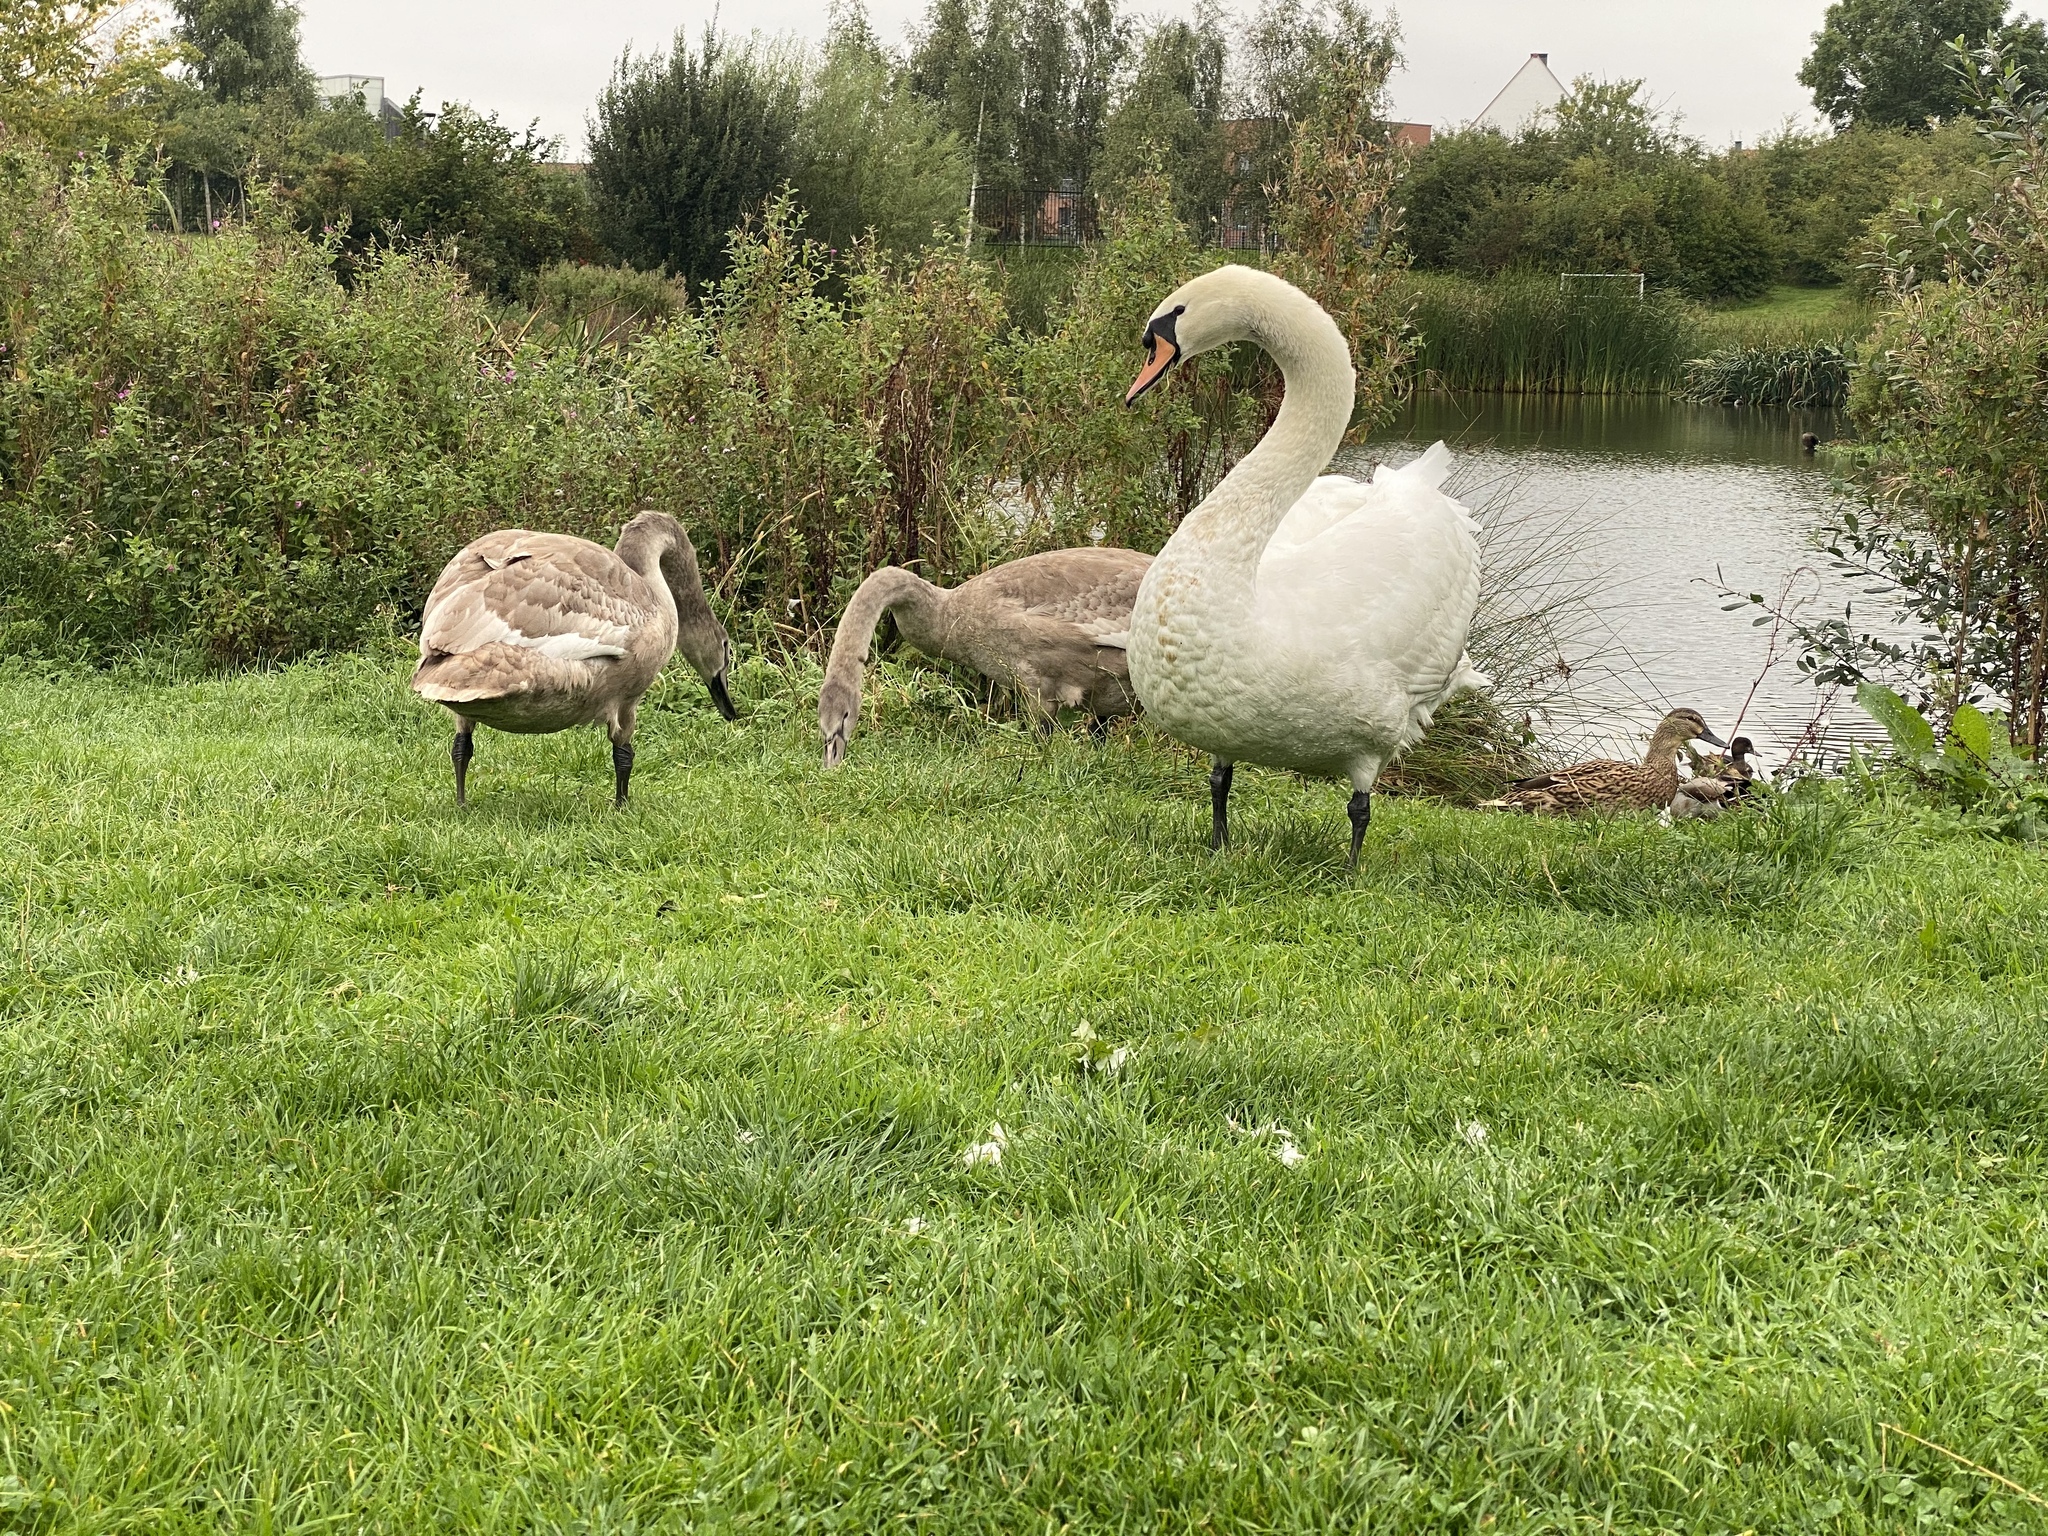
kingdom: Animalia
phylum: Chordata
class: Aves
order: Anseriformes
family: Anatidae
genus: Cygnus
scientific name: Cygnus olor
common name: Mute swan
